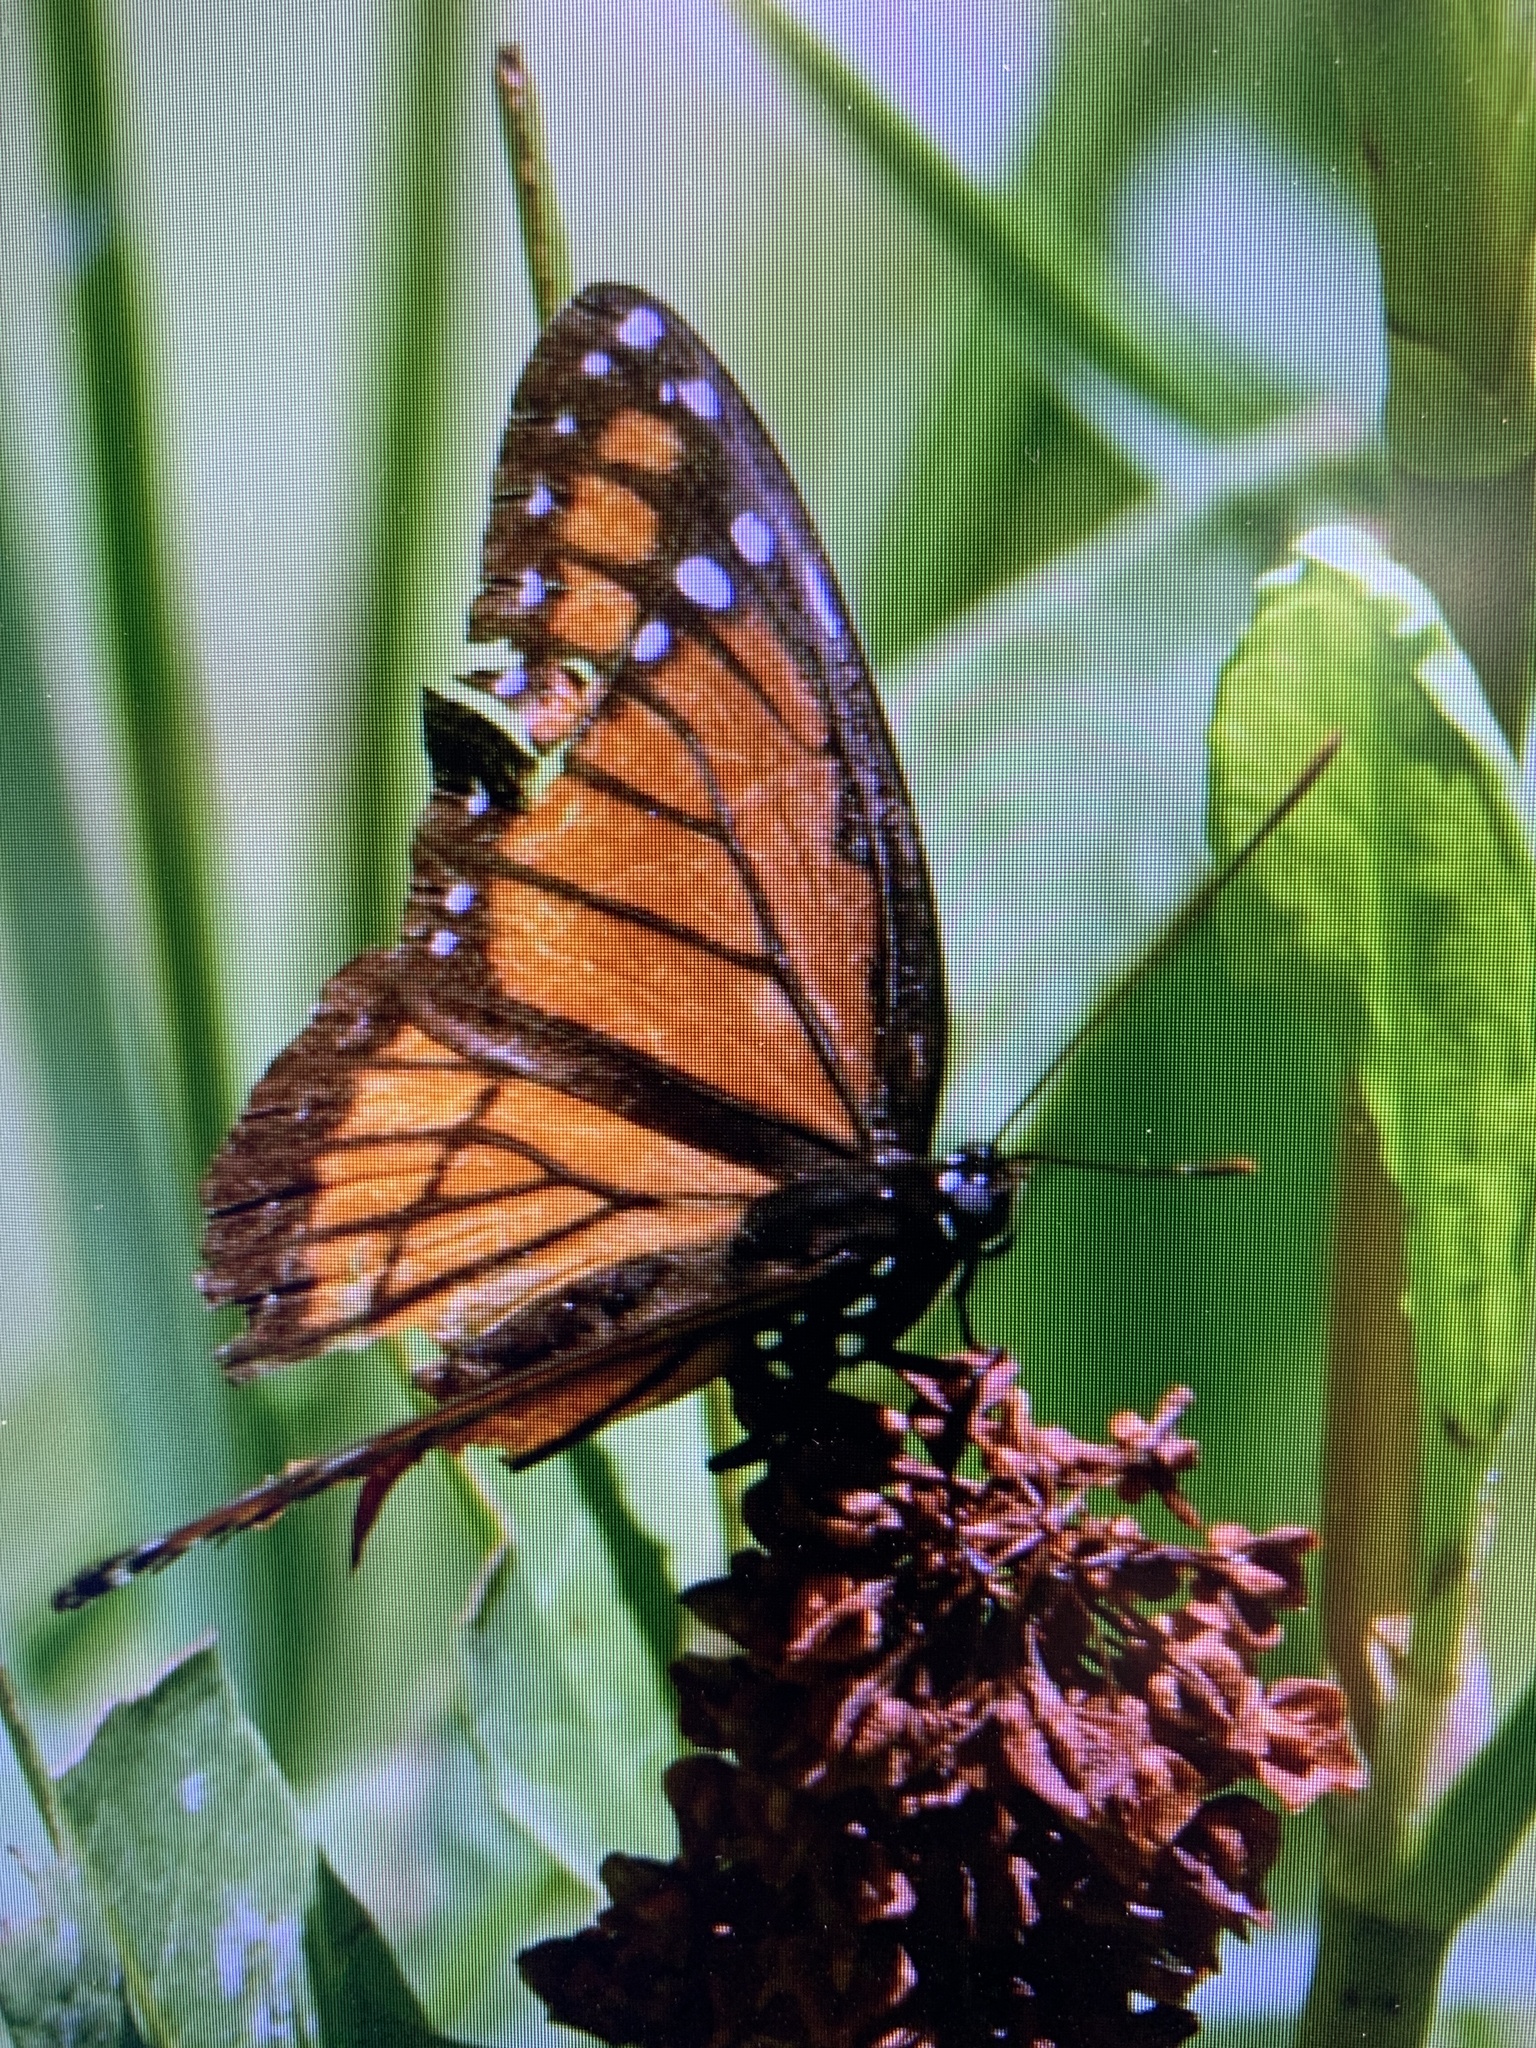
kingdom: Animalia
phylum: Arthropoda
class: Insecta
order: Lepidoptera
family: Nymphalidae
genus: Limenitis
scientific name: Limenitis archippus
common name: Viceroy
